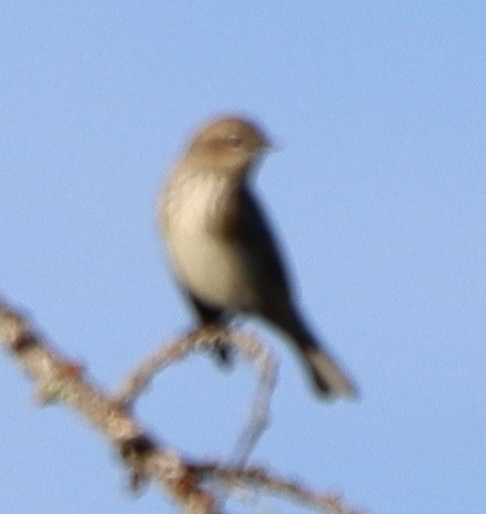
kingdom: Animalia
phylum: Chordata
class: Aves
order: Passeriformes
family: Parulidae
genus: Setophaga
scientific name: Setophaga coronata
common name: Myrtle warbler
